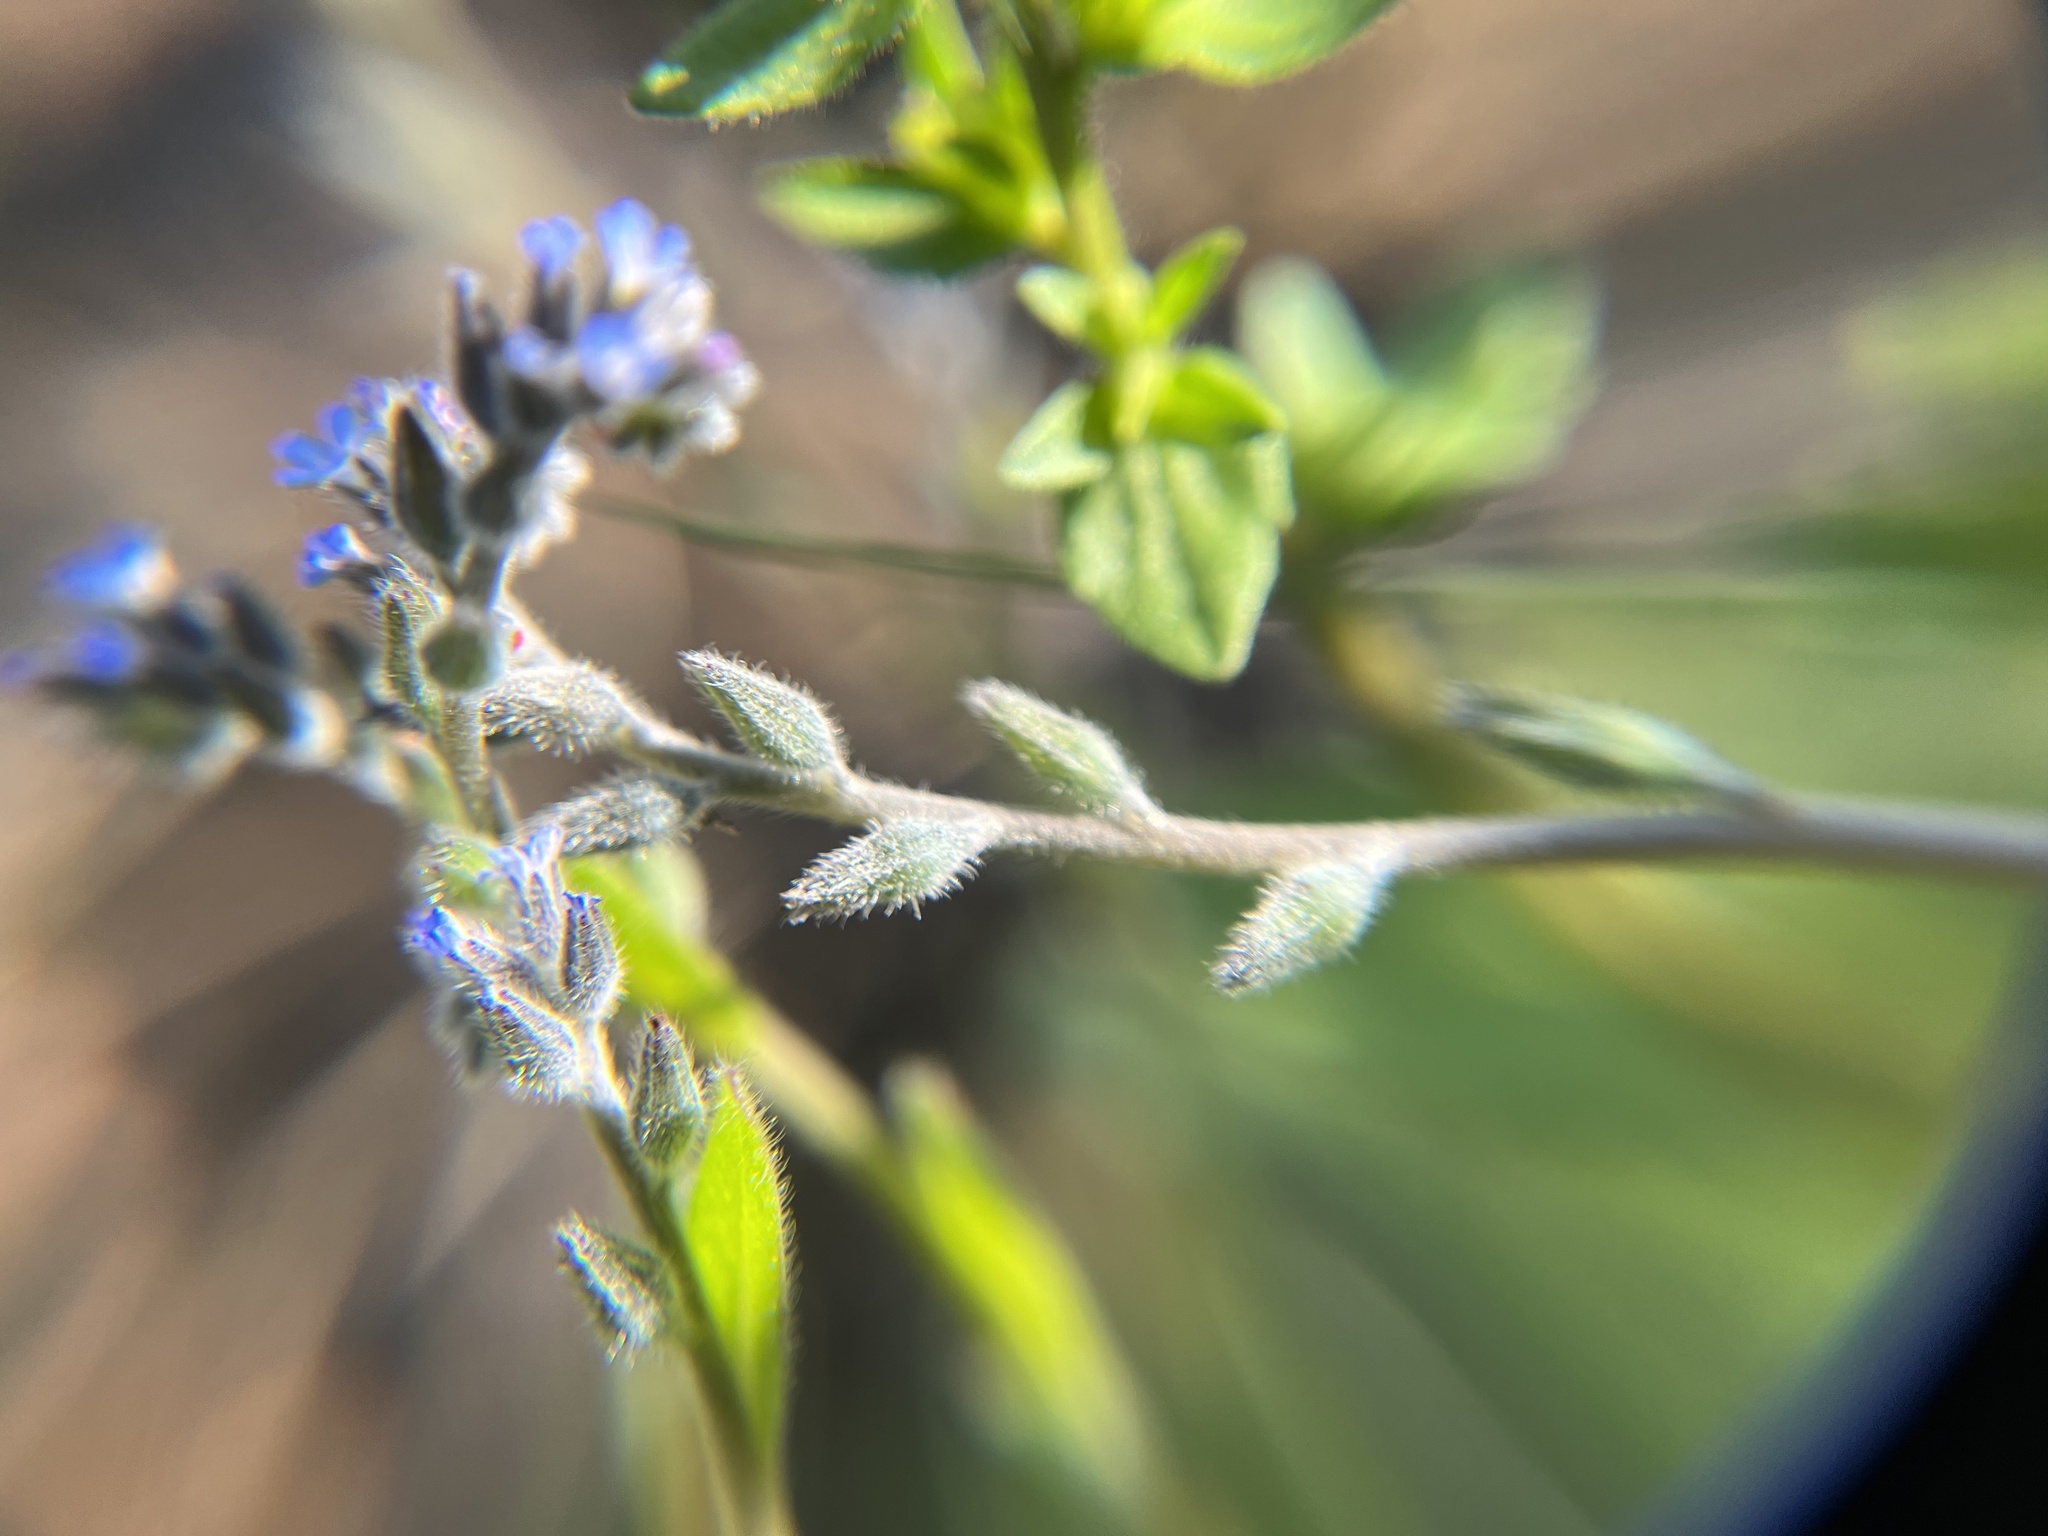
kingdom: Plantae
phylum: Tracheophyta
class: Magnoliopsida
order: Boraginales
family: Boraginaceae
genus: Myosotis
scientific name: Myosotis stricta
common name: Strict forget-me-not
